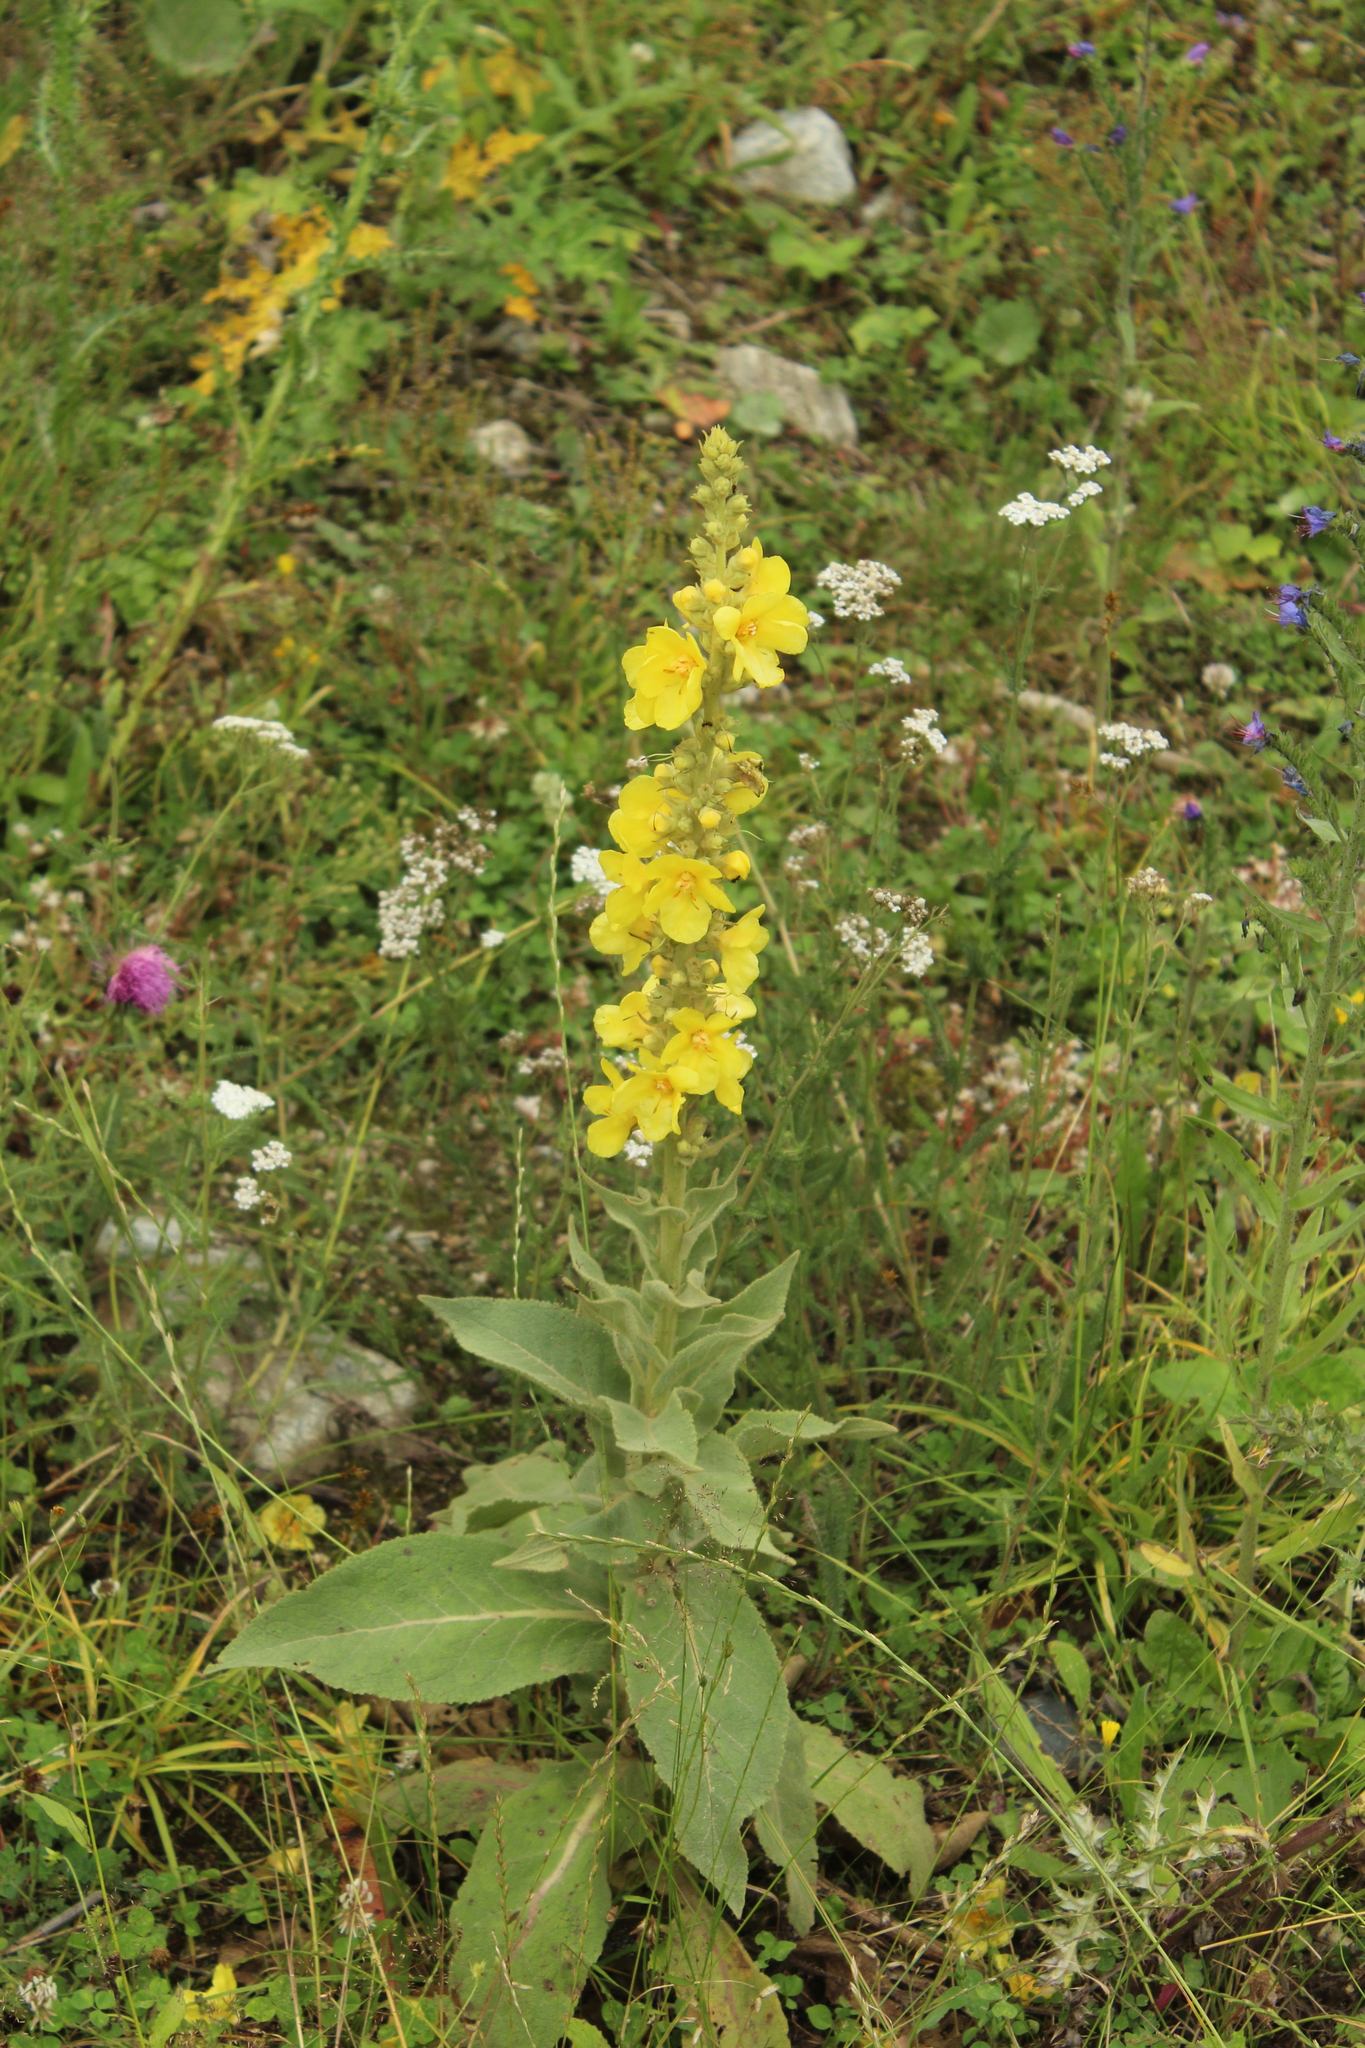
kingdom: Plantae
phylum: Tracheophyta
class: Magnoliopsida
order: Lamiales
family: Scrophulariaceae
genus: Verbascum
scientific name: Verbascum densiflorum
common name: Dense-flowered mullein
